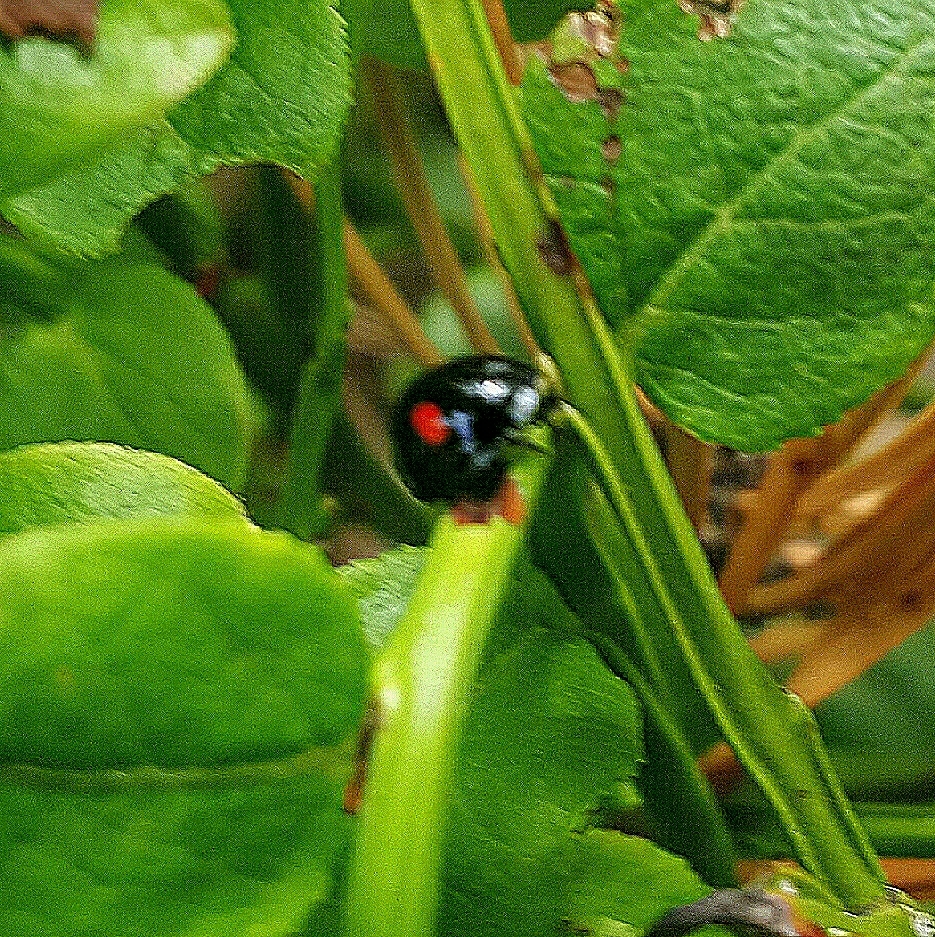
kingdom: Animalia
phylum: Arthropoda
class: Insecta
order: Coleoptera
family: Coccinellidae
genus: Chilocorus
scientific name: Chilocorus renipustulatus
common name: Kidney-spot ladybird
